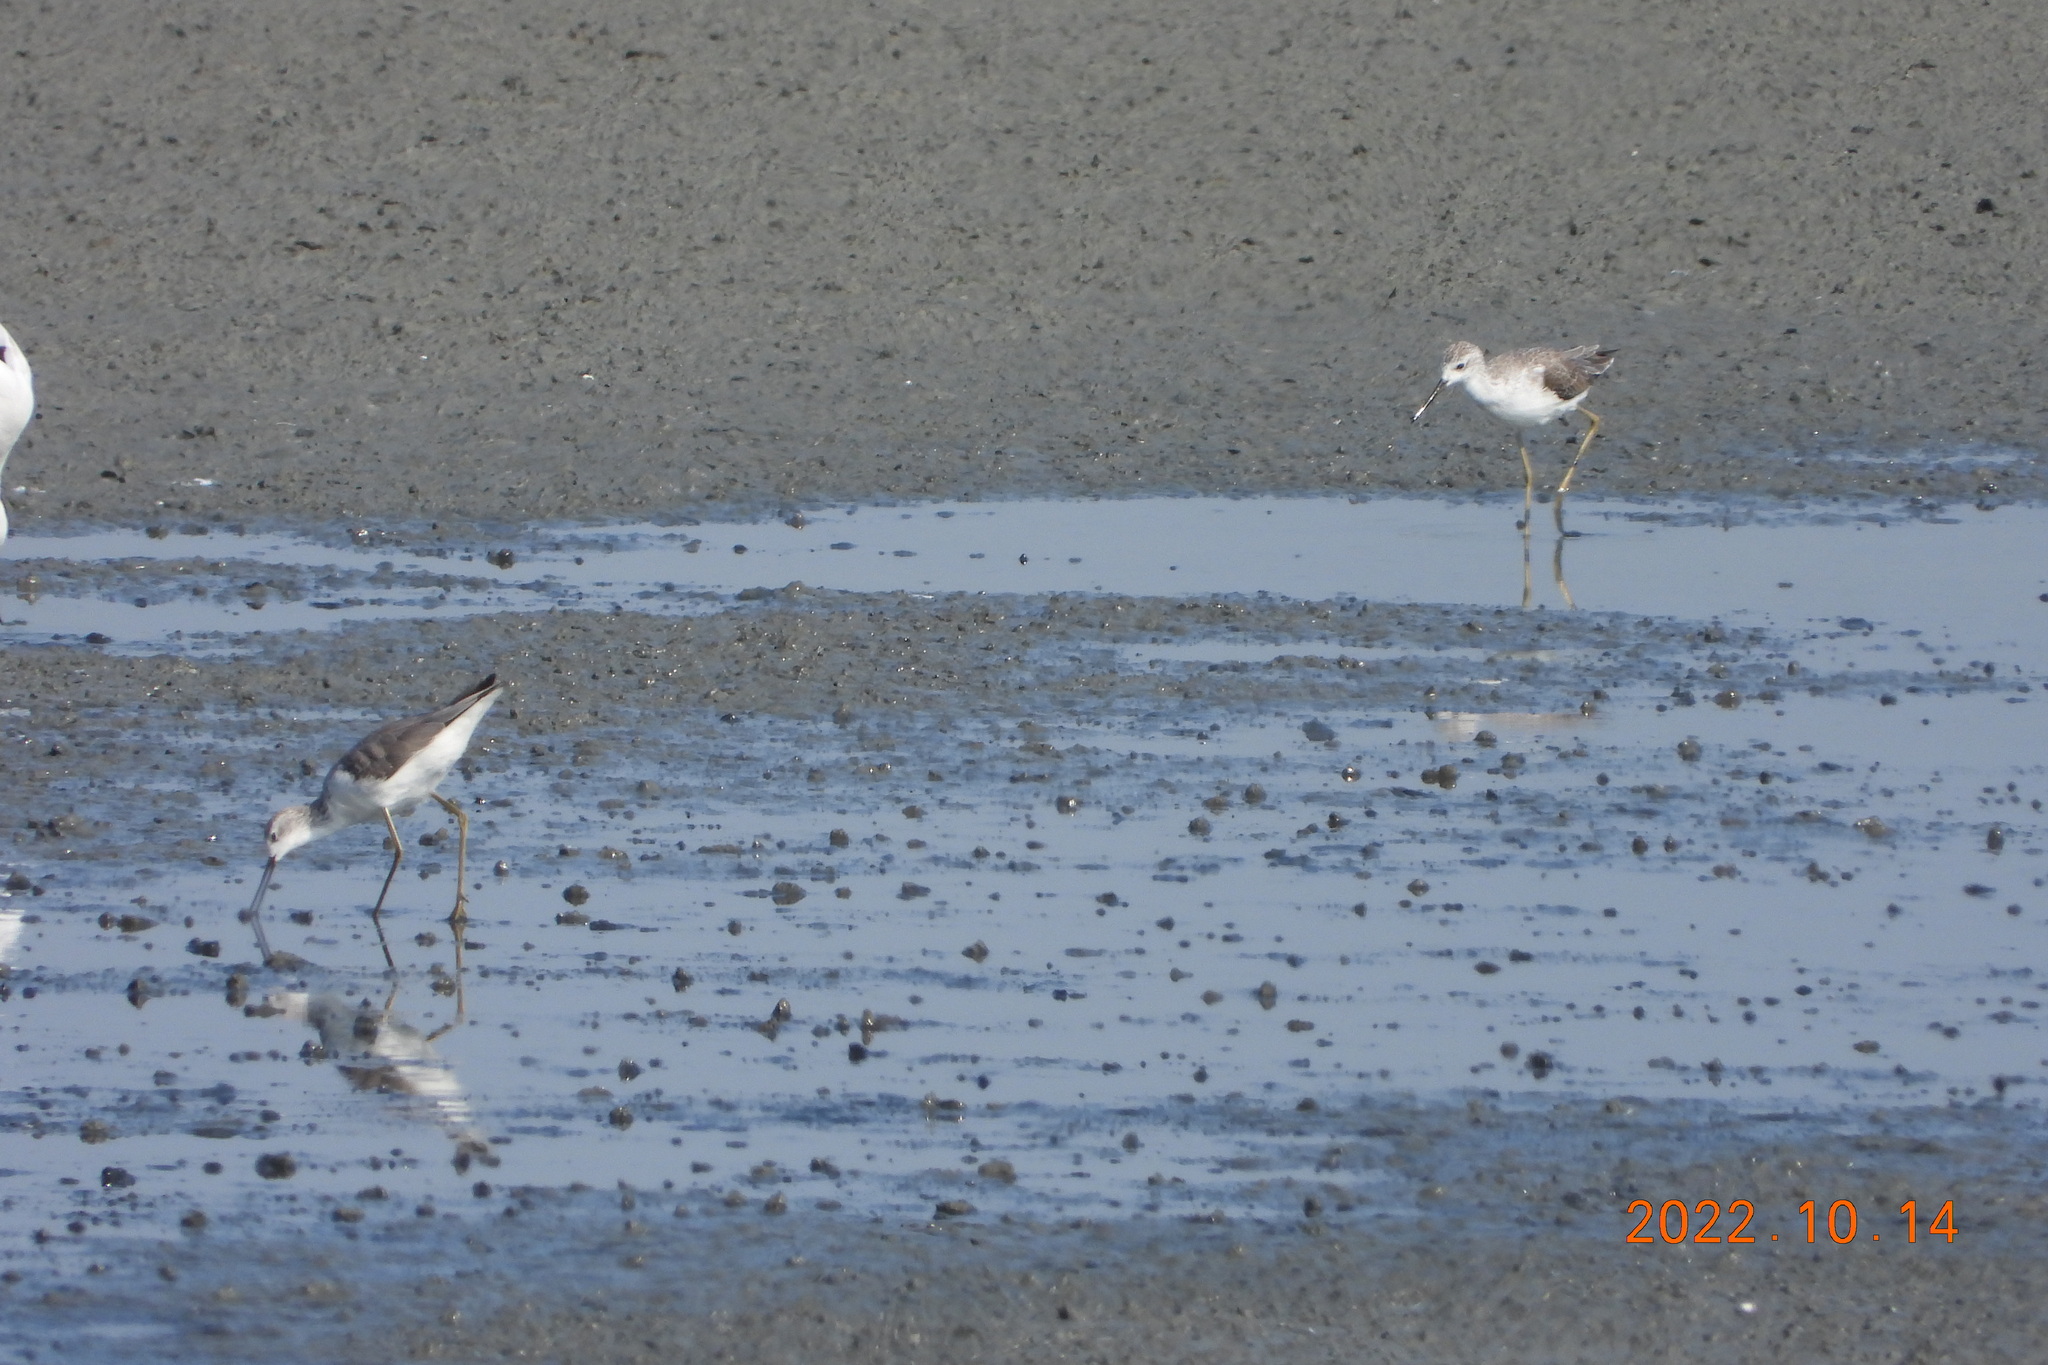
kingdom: Animalia
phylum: Chordata
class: Aves
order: Charadriiformes
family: Scolopacidae
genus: Tringa
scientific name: Tringa stagnatilis
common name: Marsh sandpiper
